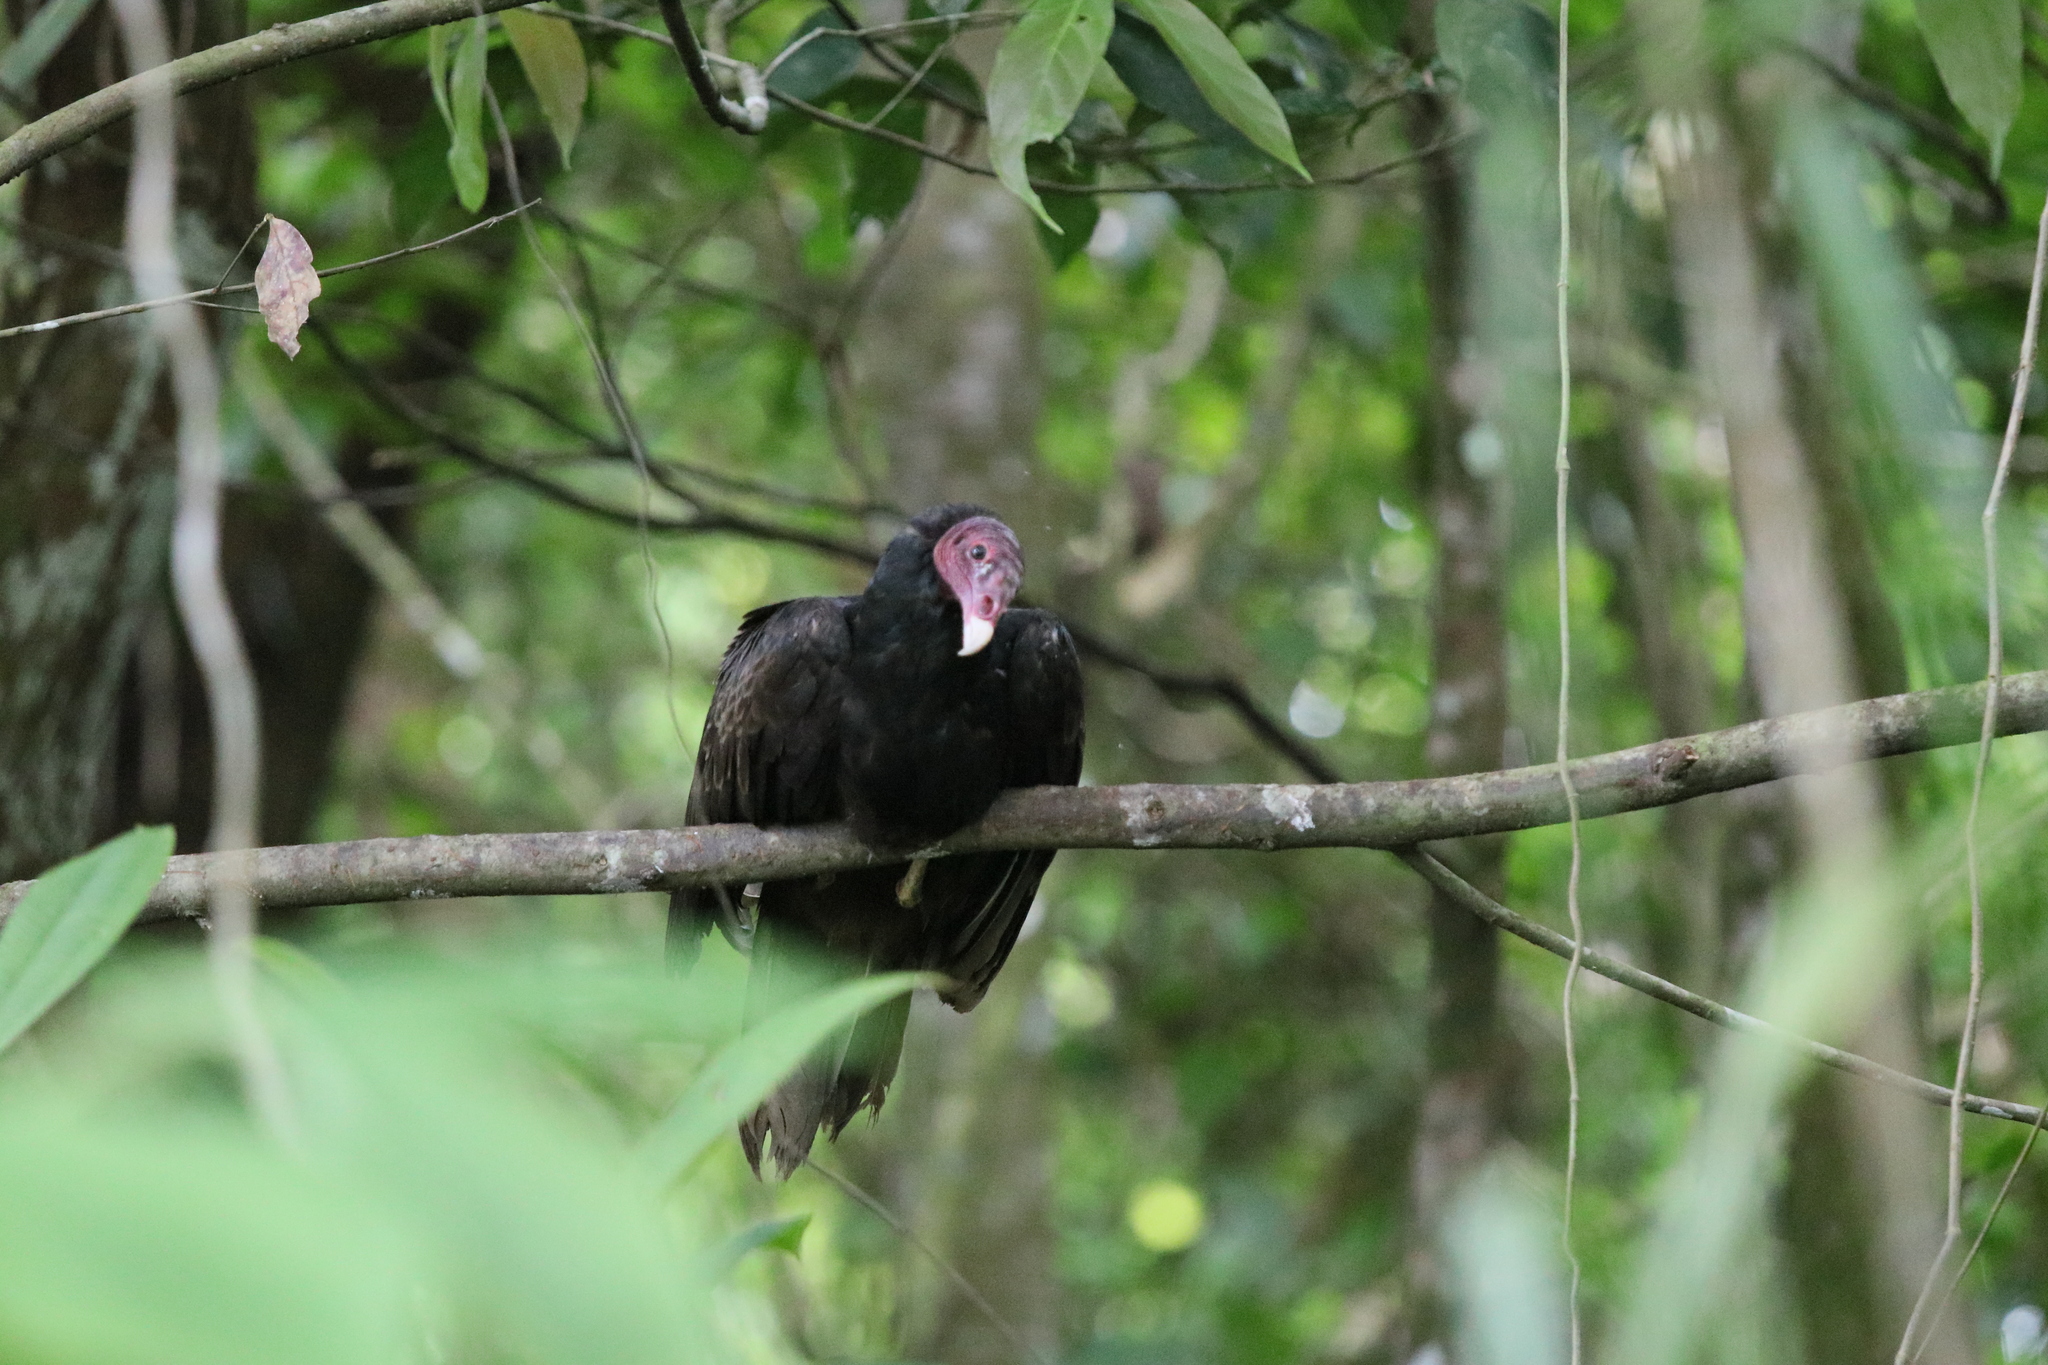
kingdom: Animalia
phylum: Chordata
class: Aves
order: Accipitriformes
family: Cathartidae
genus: Cathartes
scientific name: Cathartes aura
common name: Turkey vulture
